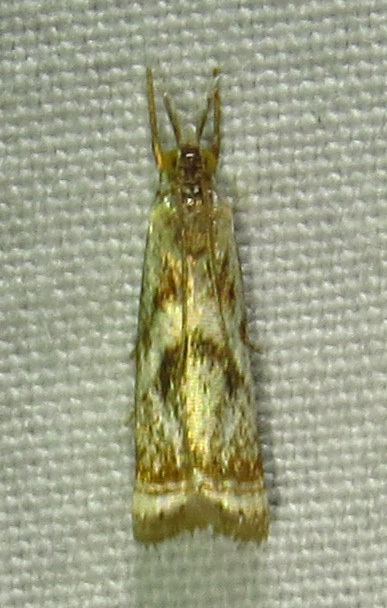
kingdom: Animalia
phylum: Arthropoda
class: Insecta
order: Lepidoptera
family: Crambidae
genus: Microcrambus
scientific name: Microcrambus elegans
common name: Elegant grass-veneer
